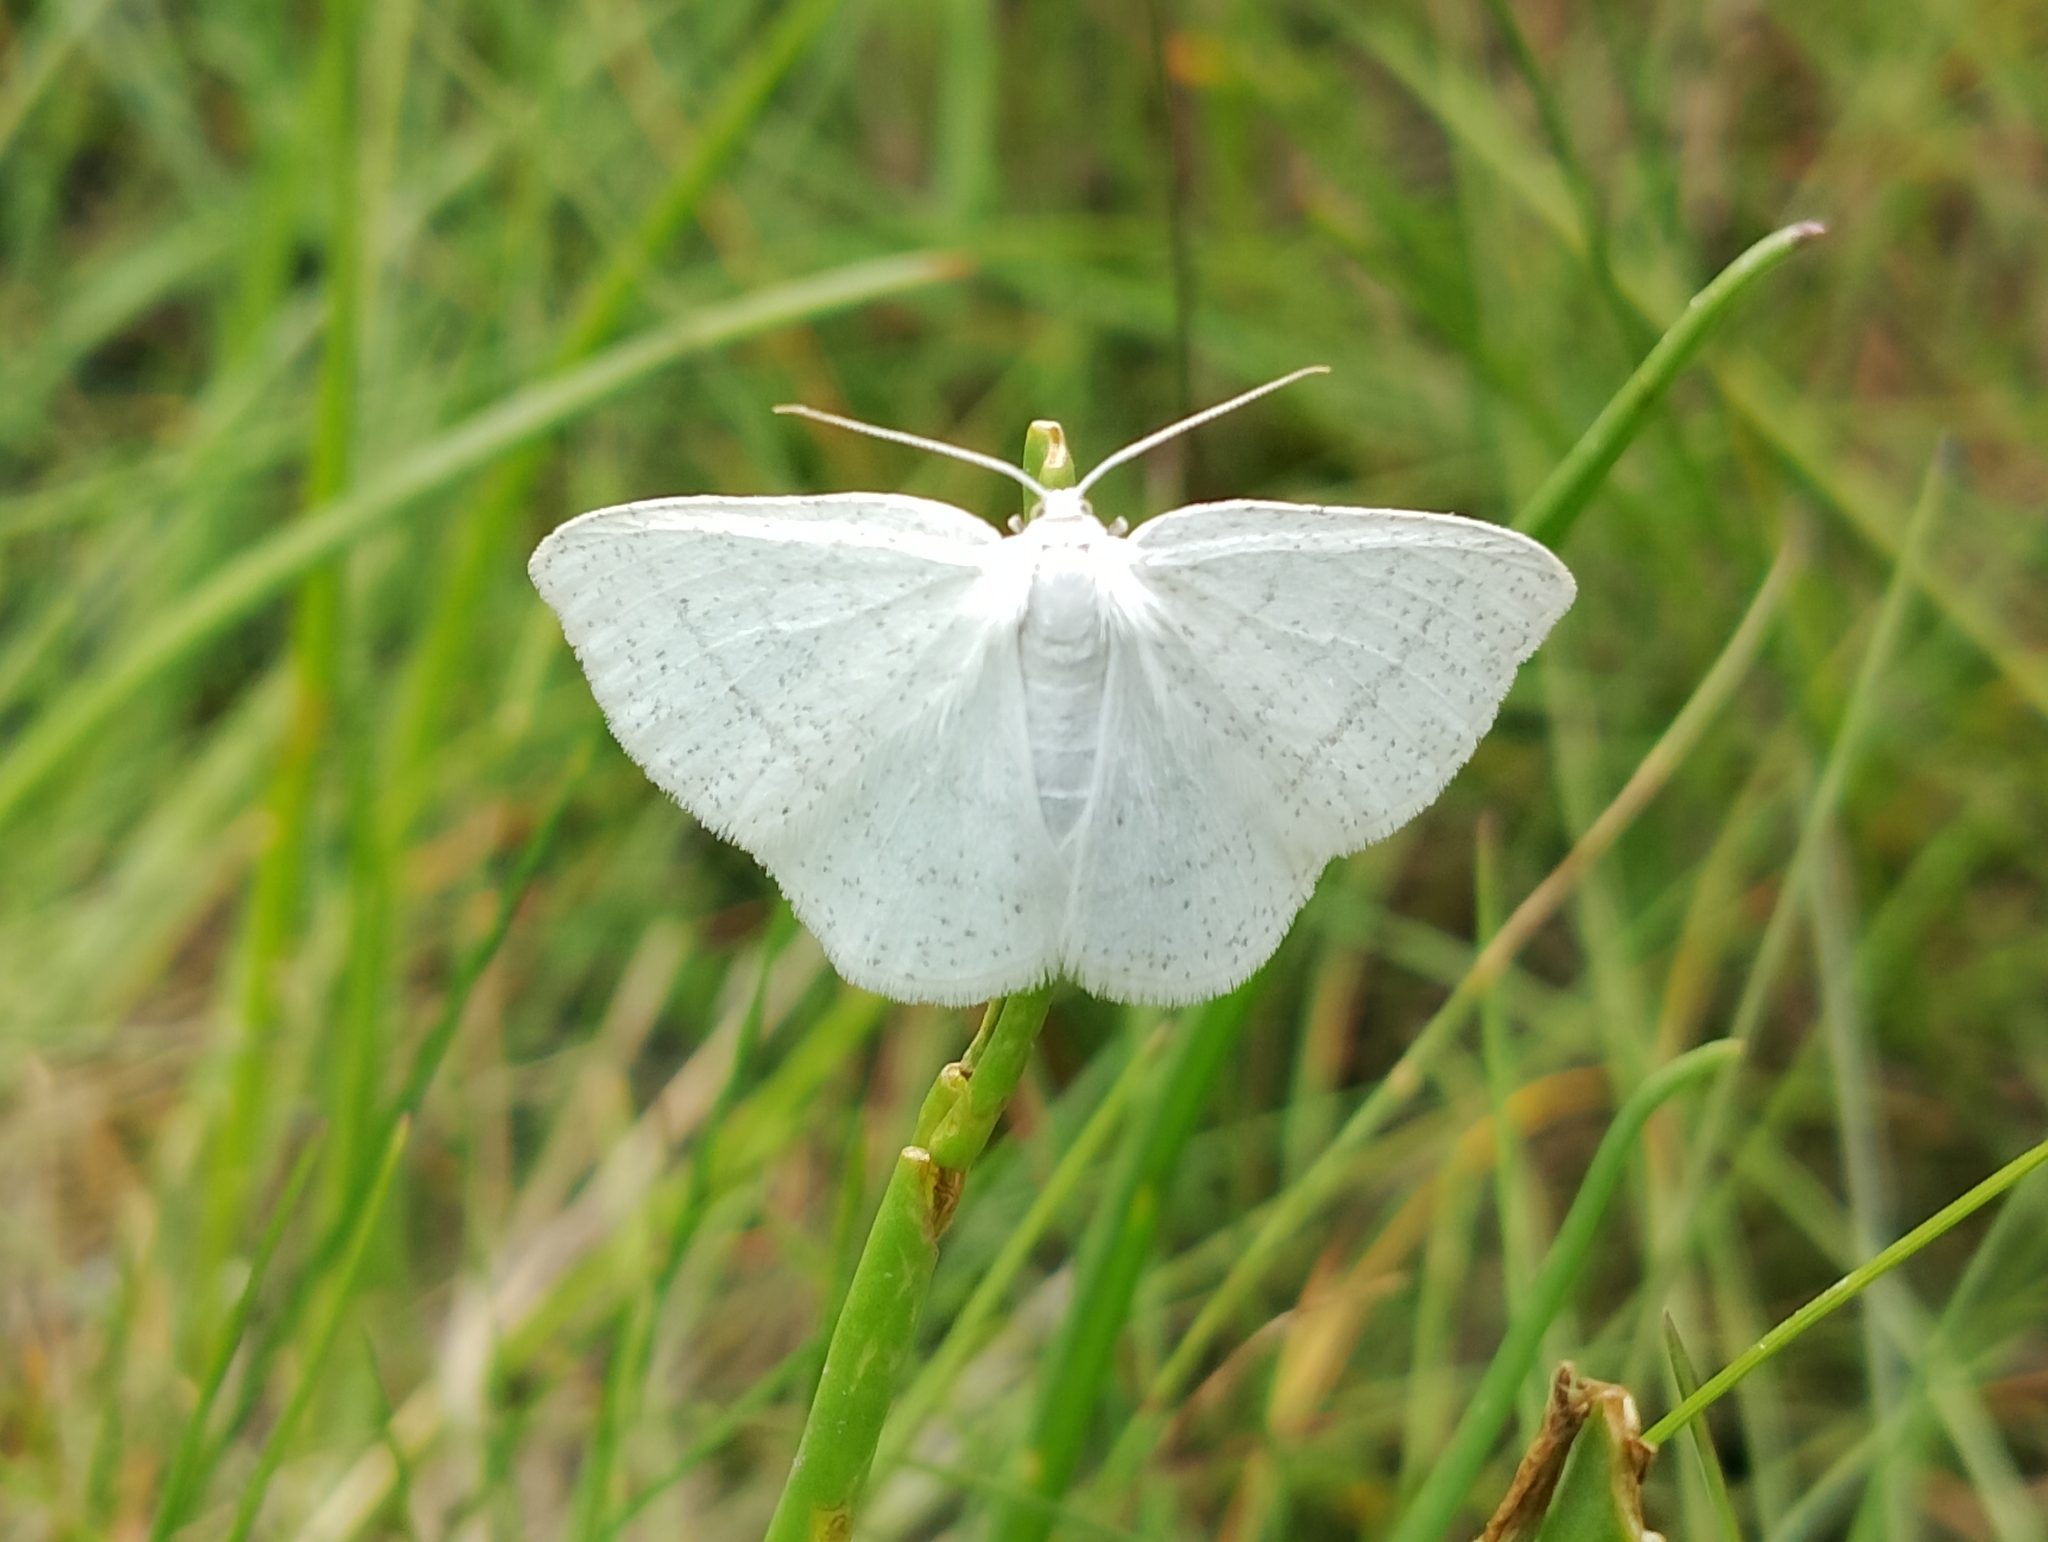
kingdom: Animalia
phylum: Arthropoda
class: Insecta
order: Lepidoptera
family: Geometridae
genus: Cabera
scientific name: Cabera pusaria
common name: Common white wave
